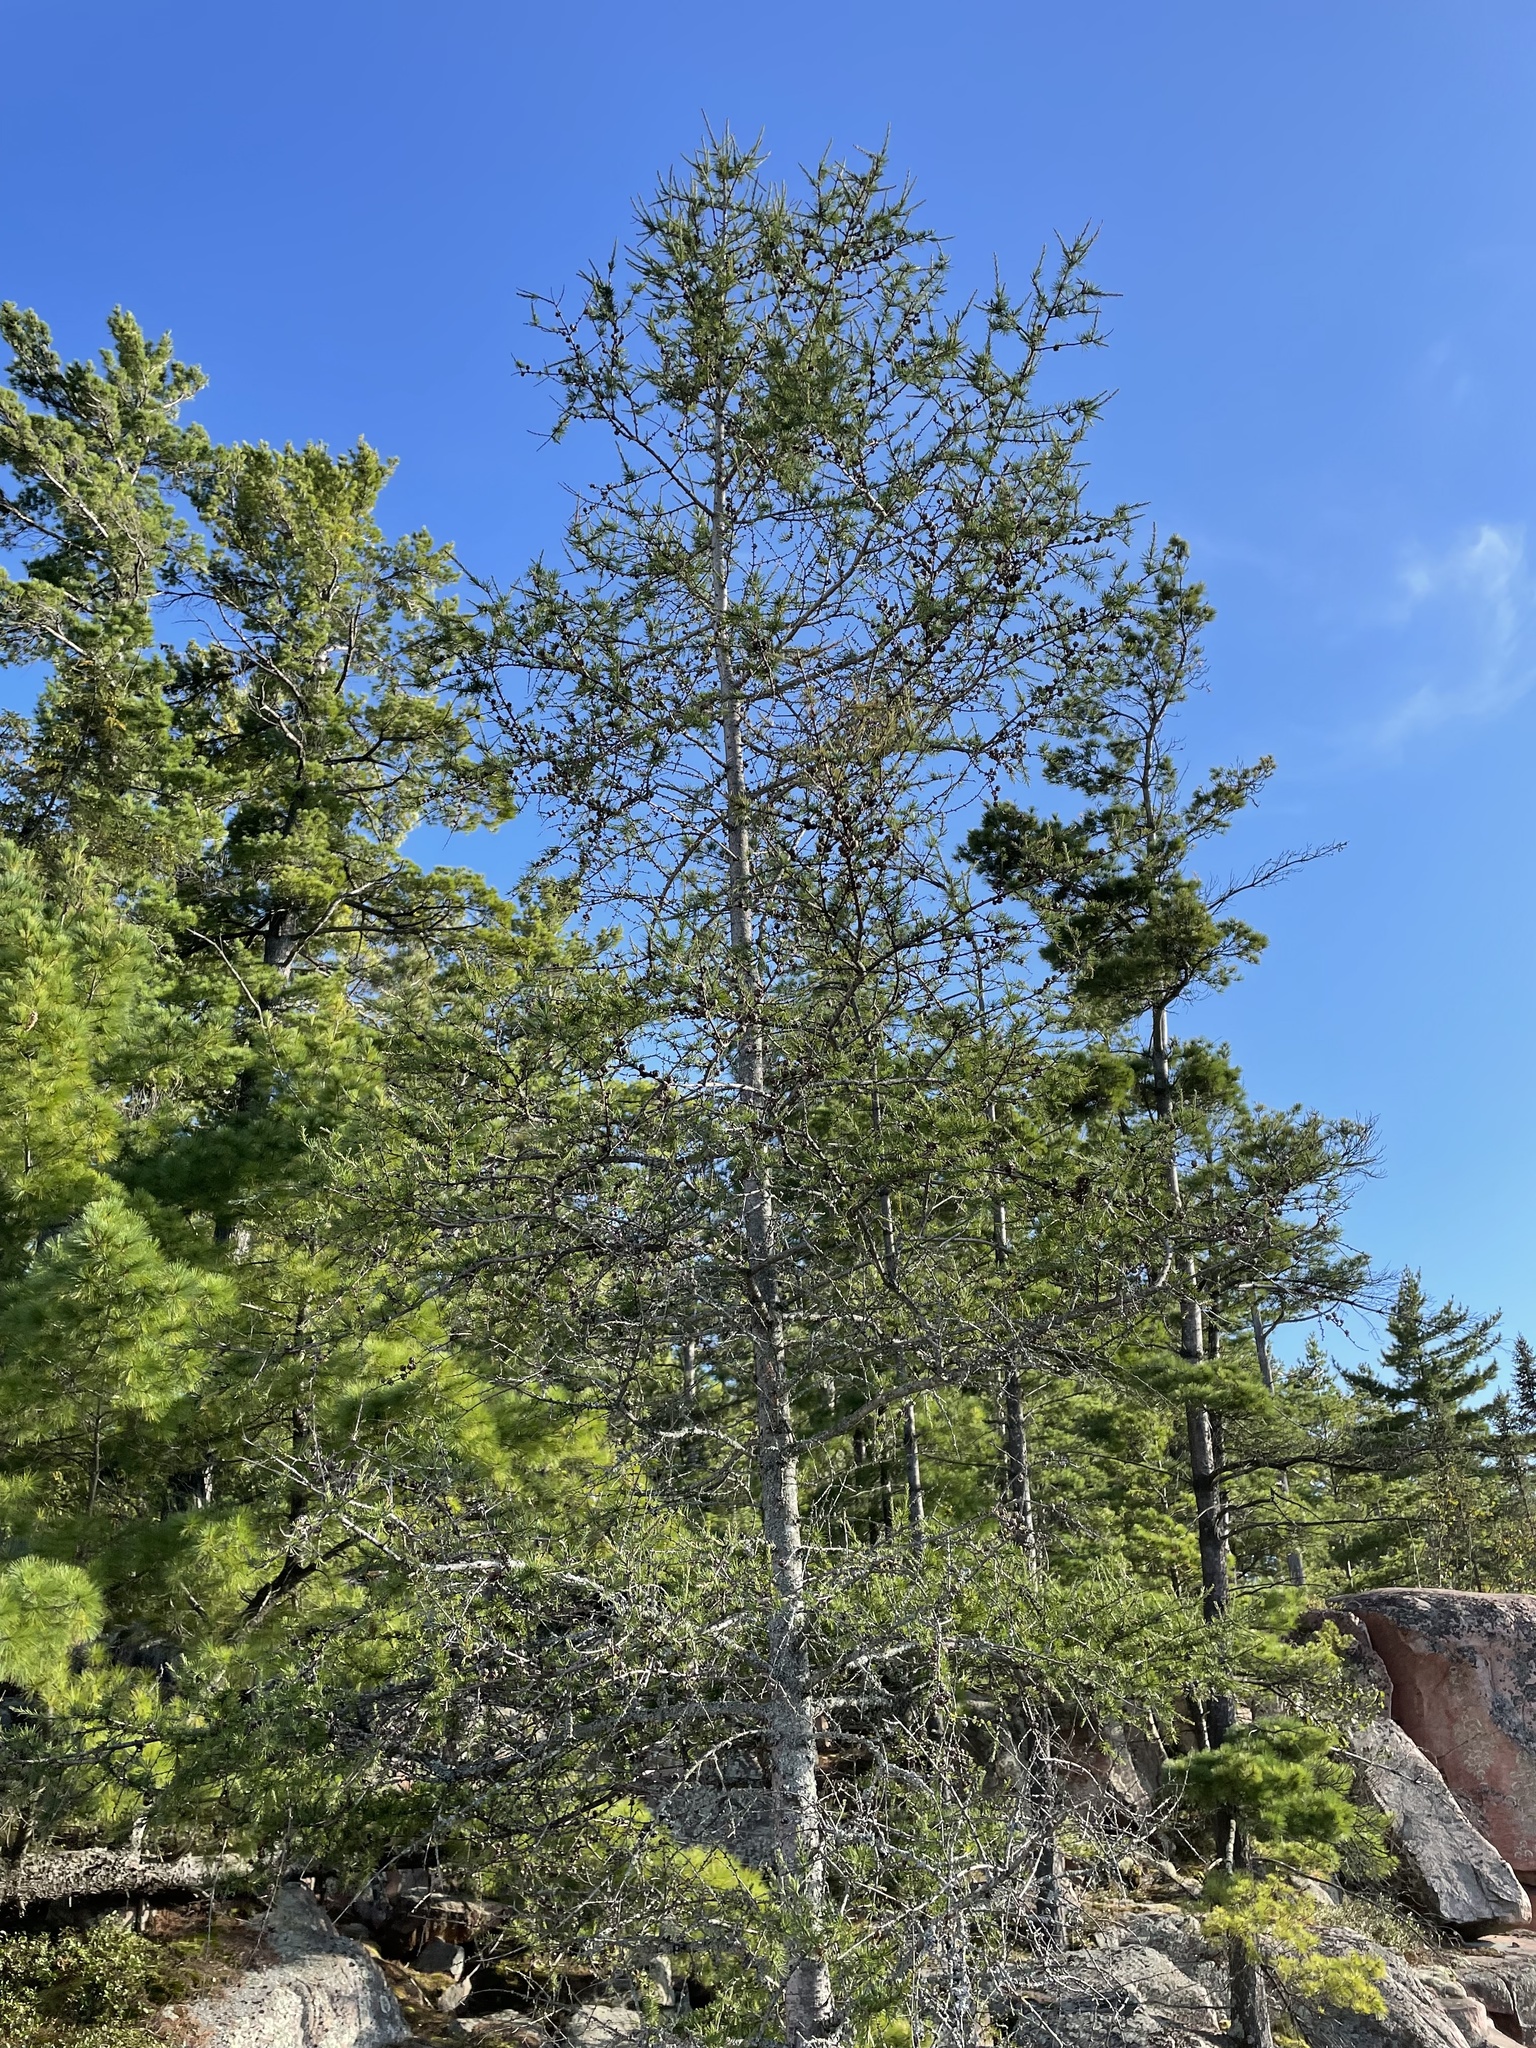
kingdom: Plantae
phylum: Tracheophyta
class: Pinopsida
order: Pinales
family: Pinaceae
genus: Larix
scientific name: Larix laricina
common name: American larch
